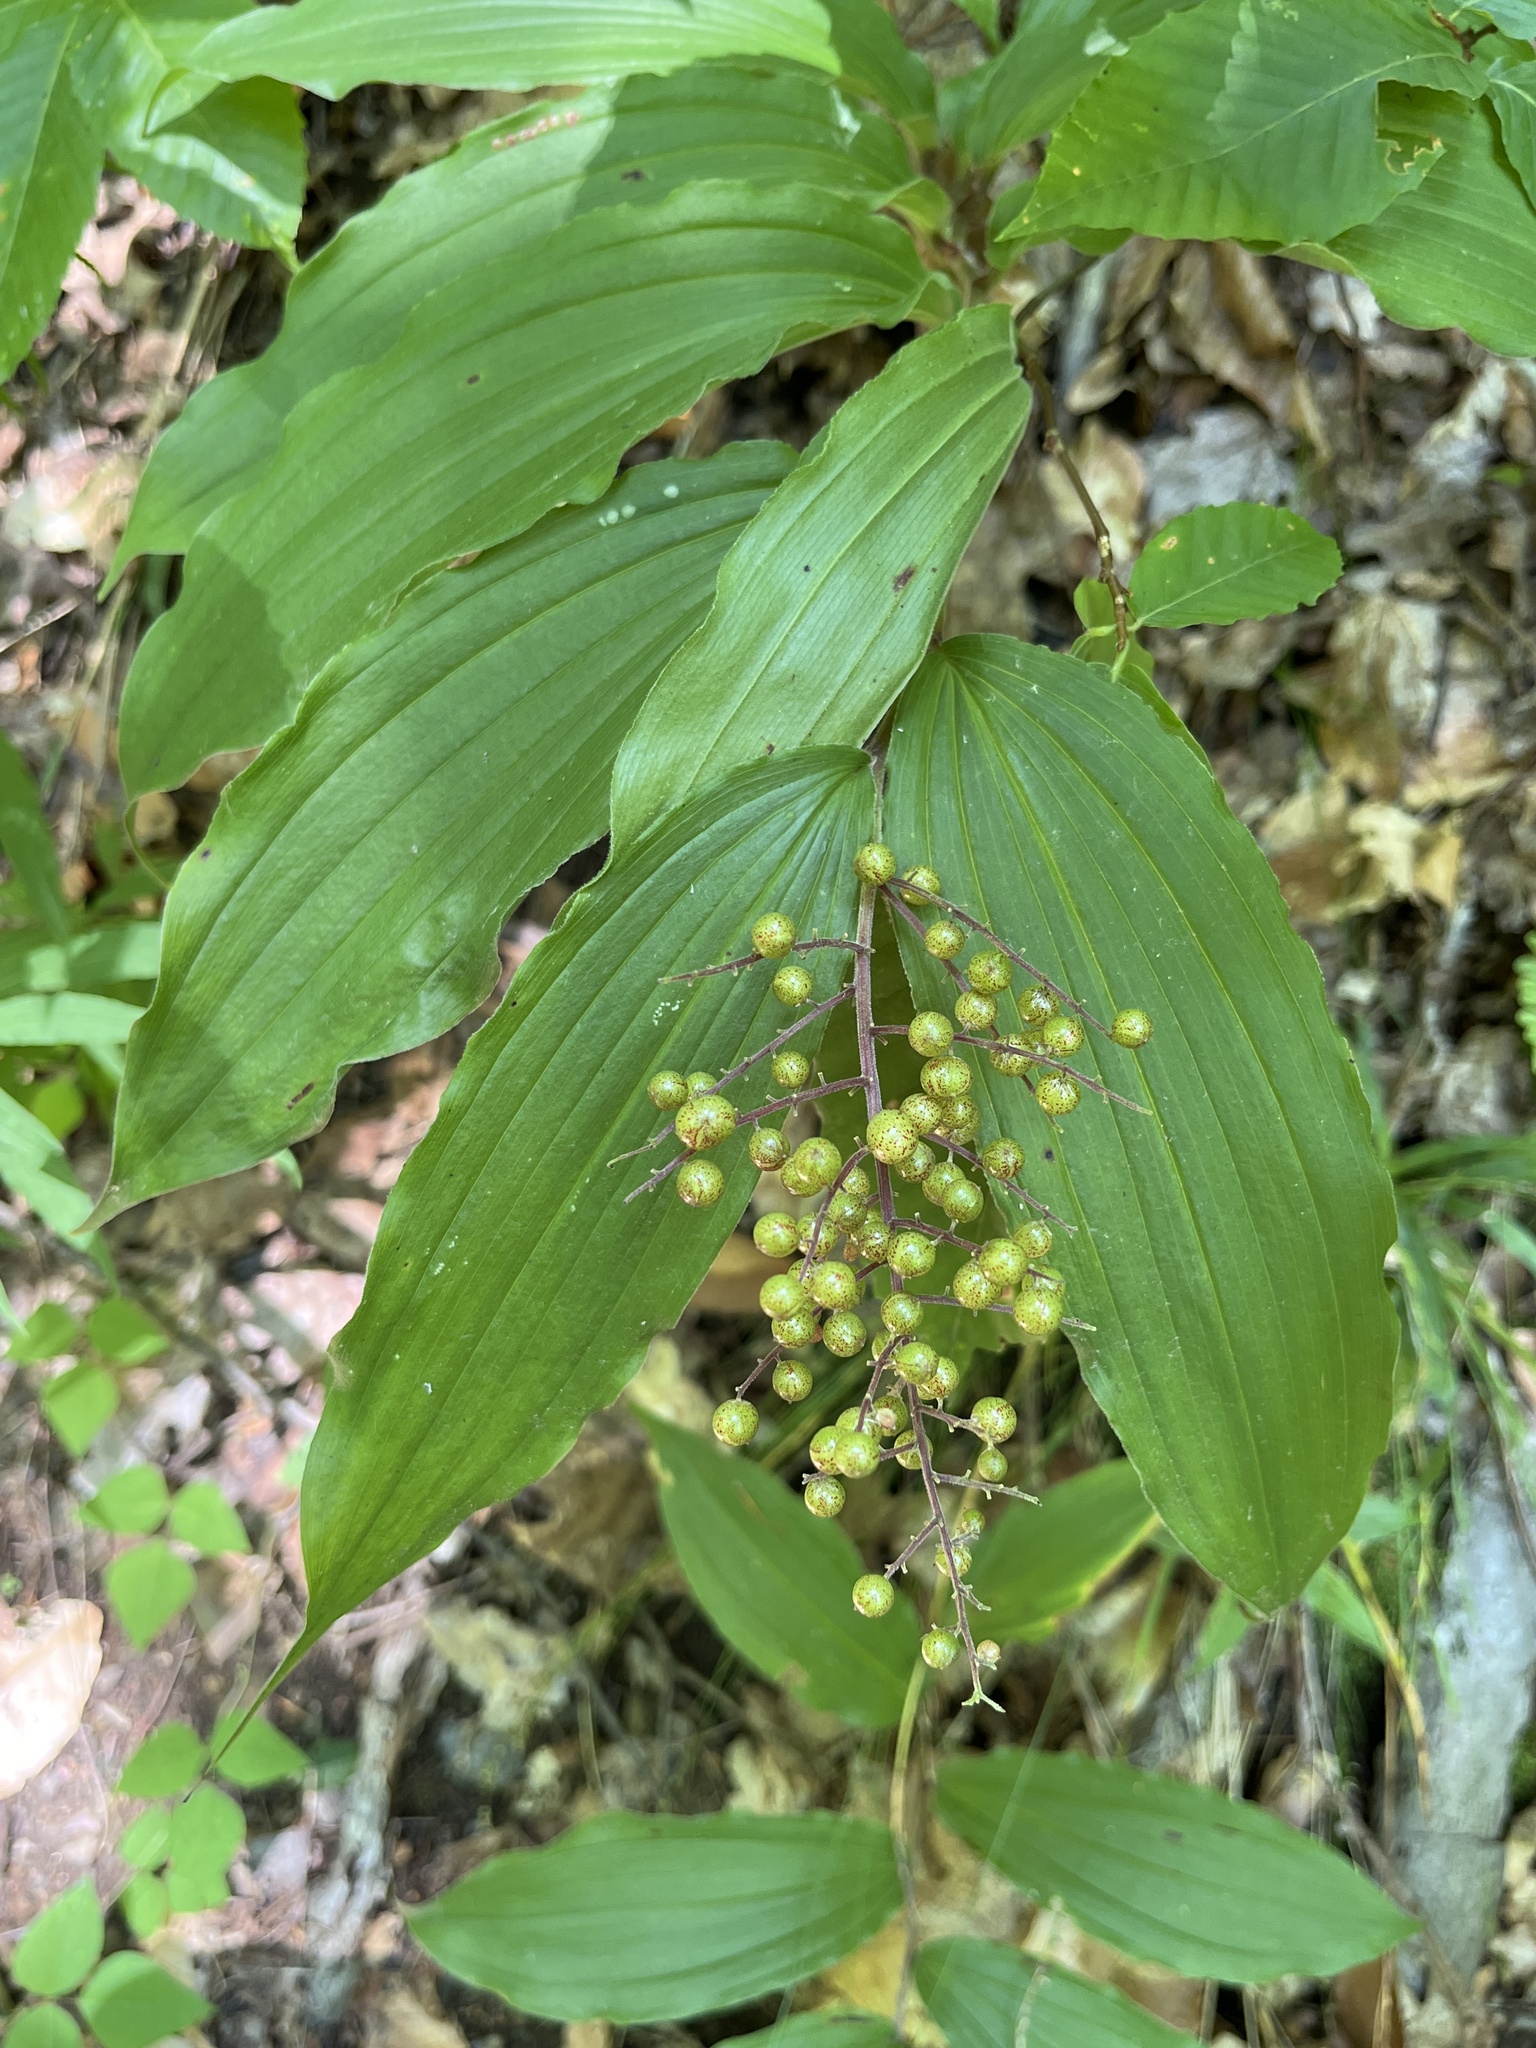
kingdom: Plantae
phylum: Tracheophyta
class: Liliopsida
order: Asparagales
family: Asparagaceae
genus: Maianthemum
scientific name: Maianthemum racemosum
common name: False spikenard
